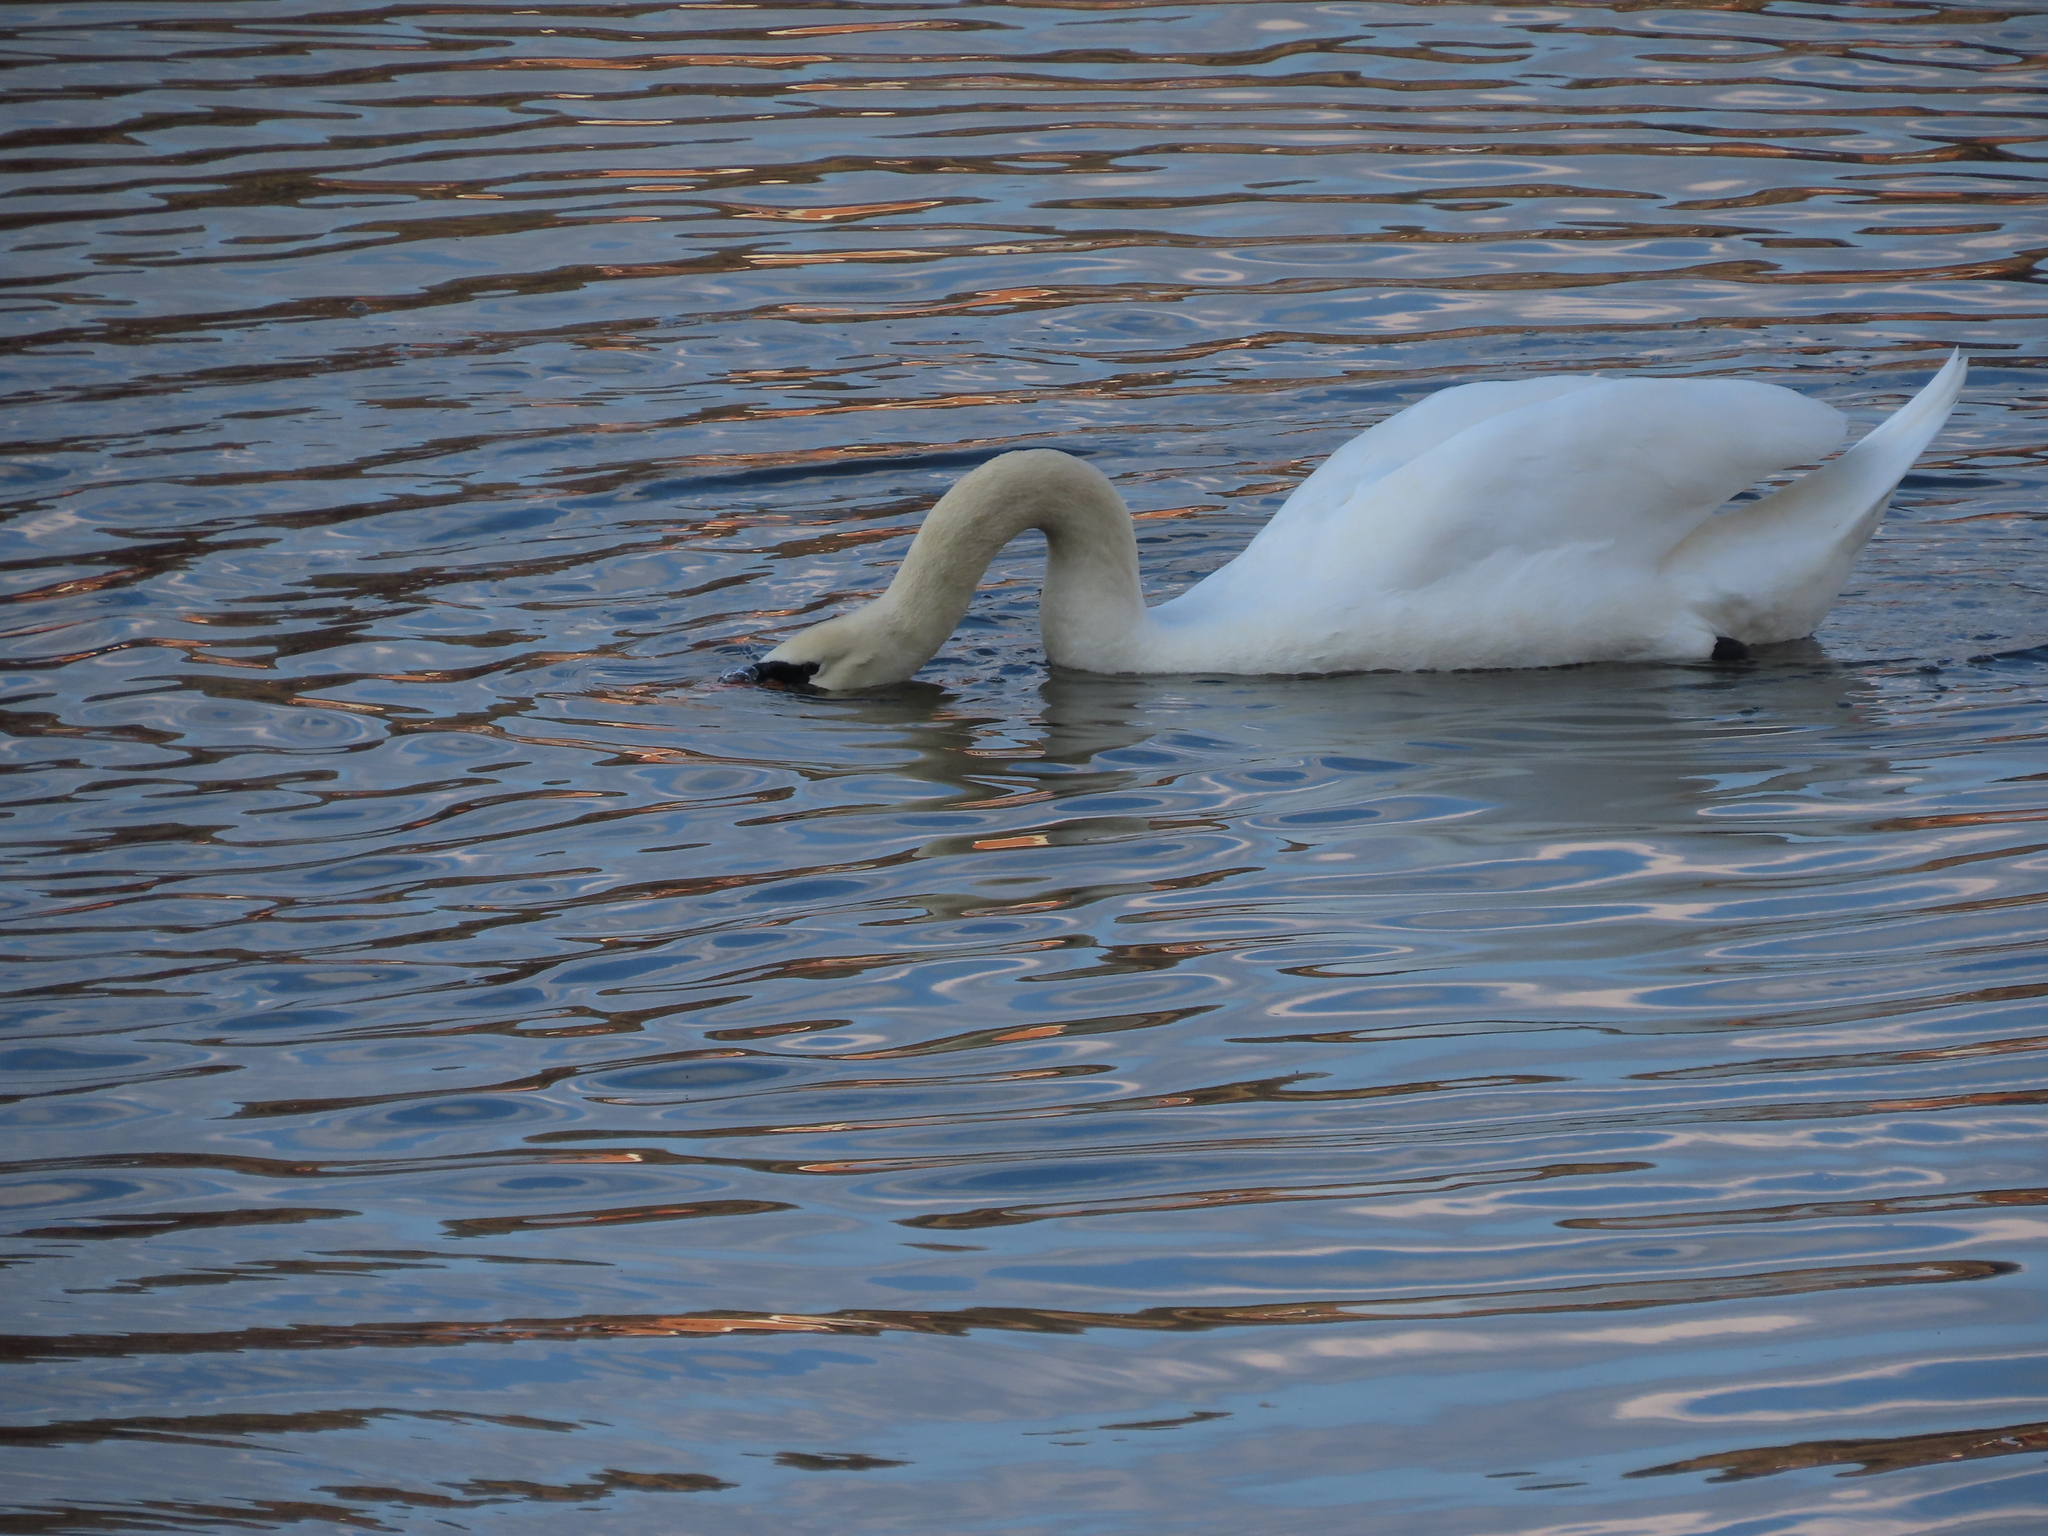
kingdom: Animalia
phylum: Chordata
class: Aves
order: Anseriformes
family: Anatidae
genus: Cygnus
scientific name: Cygnus olor
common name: Mute swan
